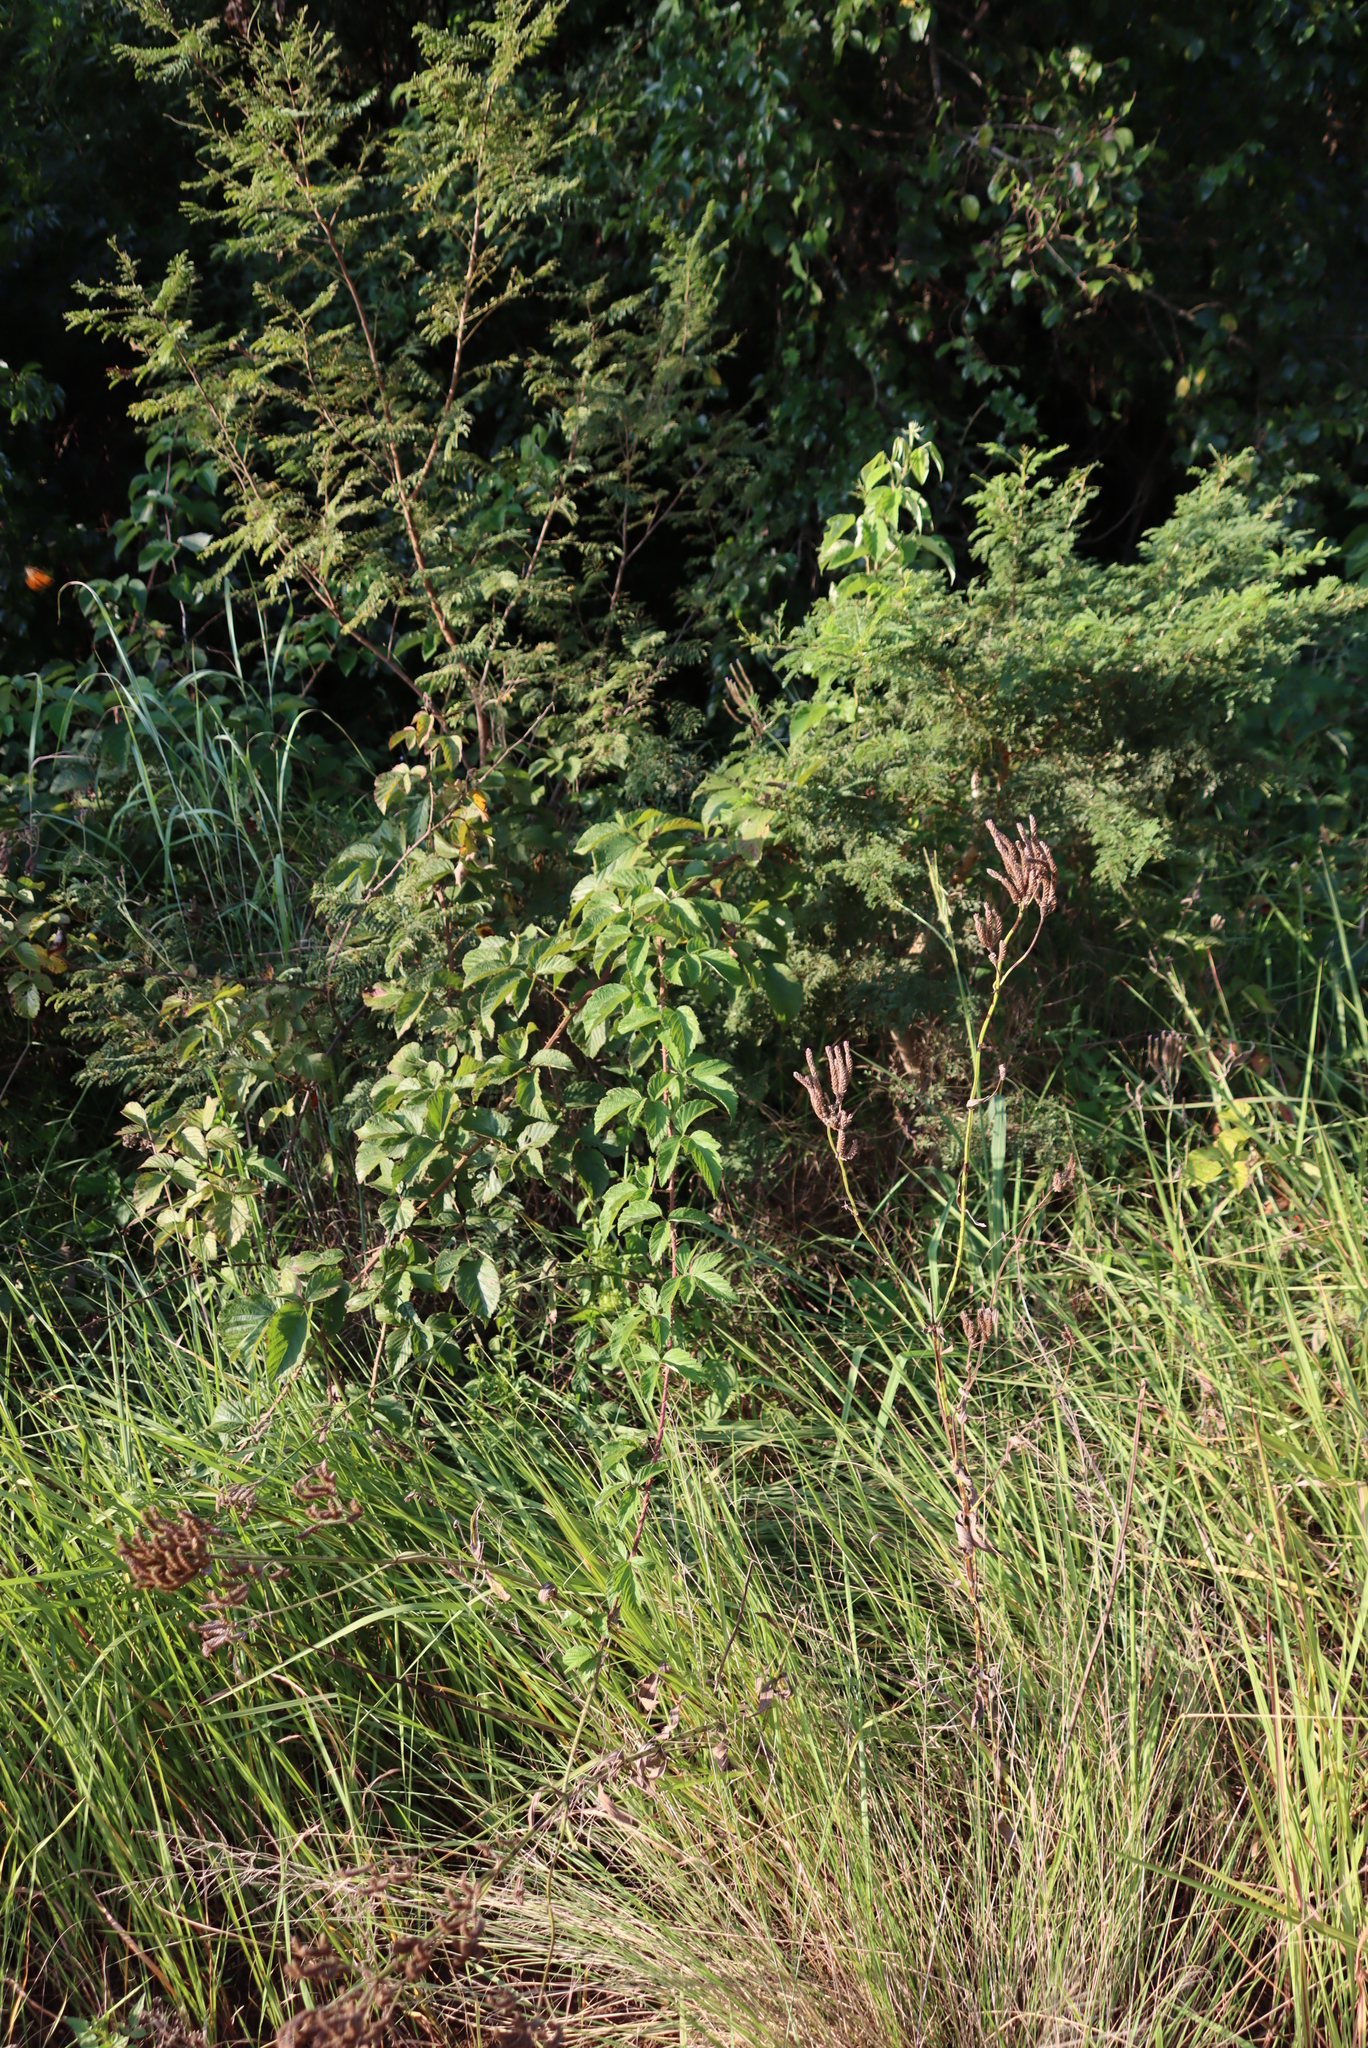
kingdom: Plantae
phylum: Tracheophyta
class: Magnoliopsida
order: Rosales
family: Rosaceae
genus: Rubus
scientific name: Rubus apetalus
